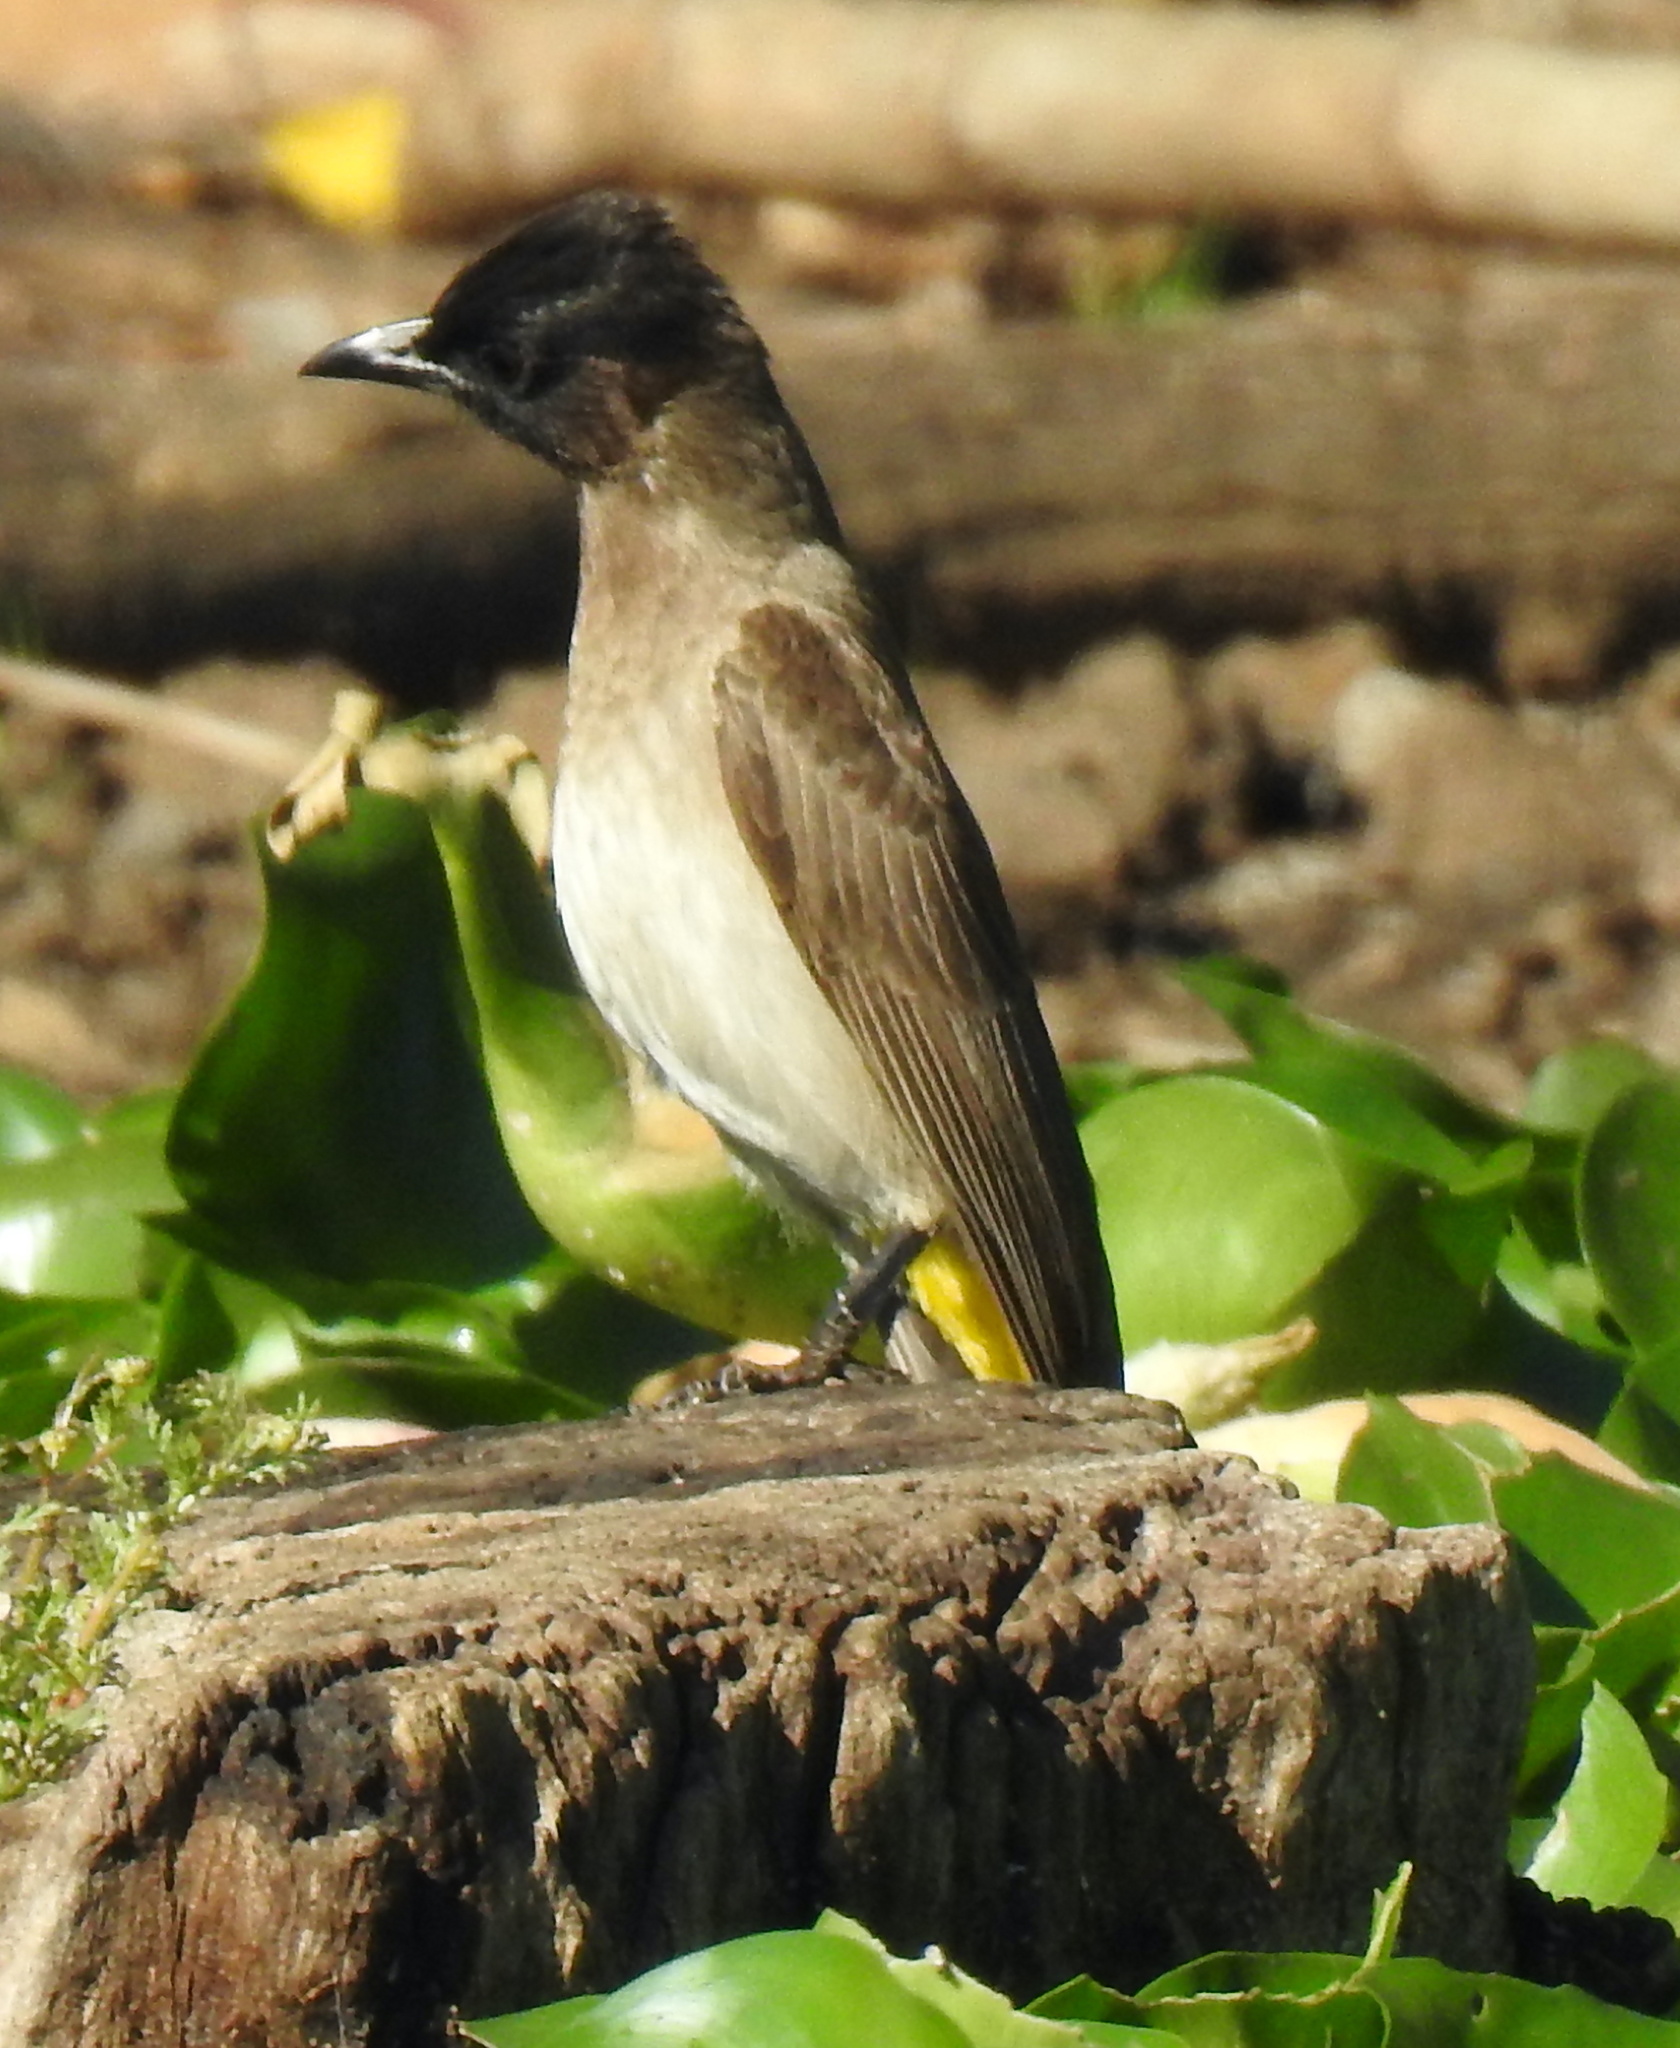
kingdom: Animalia
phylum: Chordata
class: Aves
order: Passeriformes
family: Pycnonotidae
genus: Pycnonotus
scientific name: Pycnonotus barbatus
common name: Common bulbul
